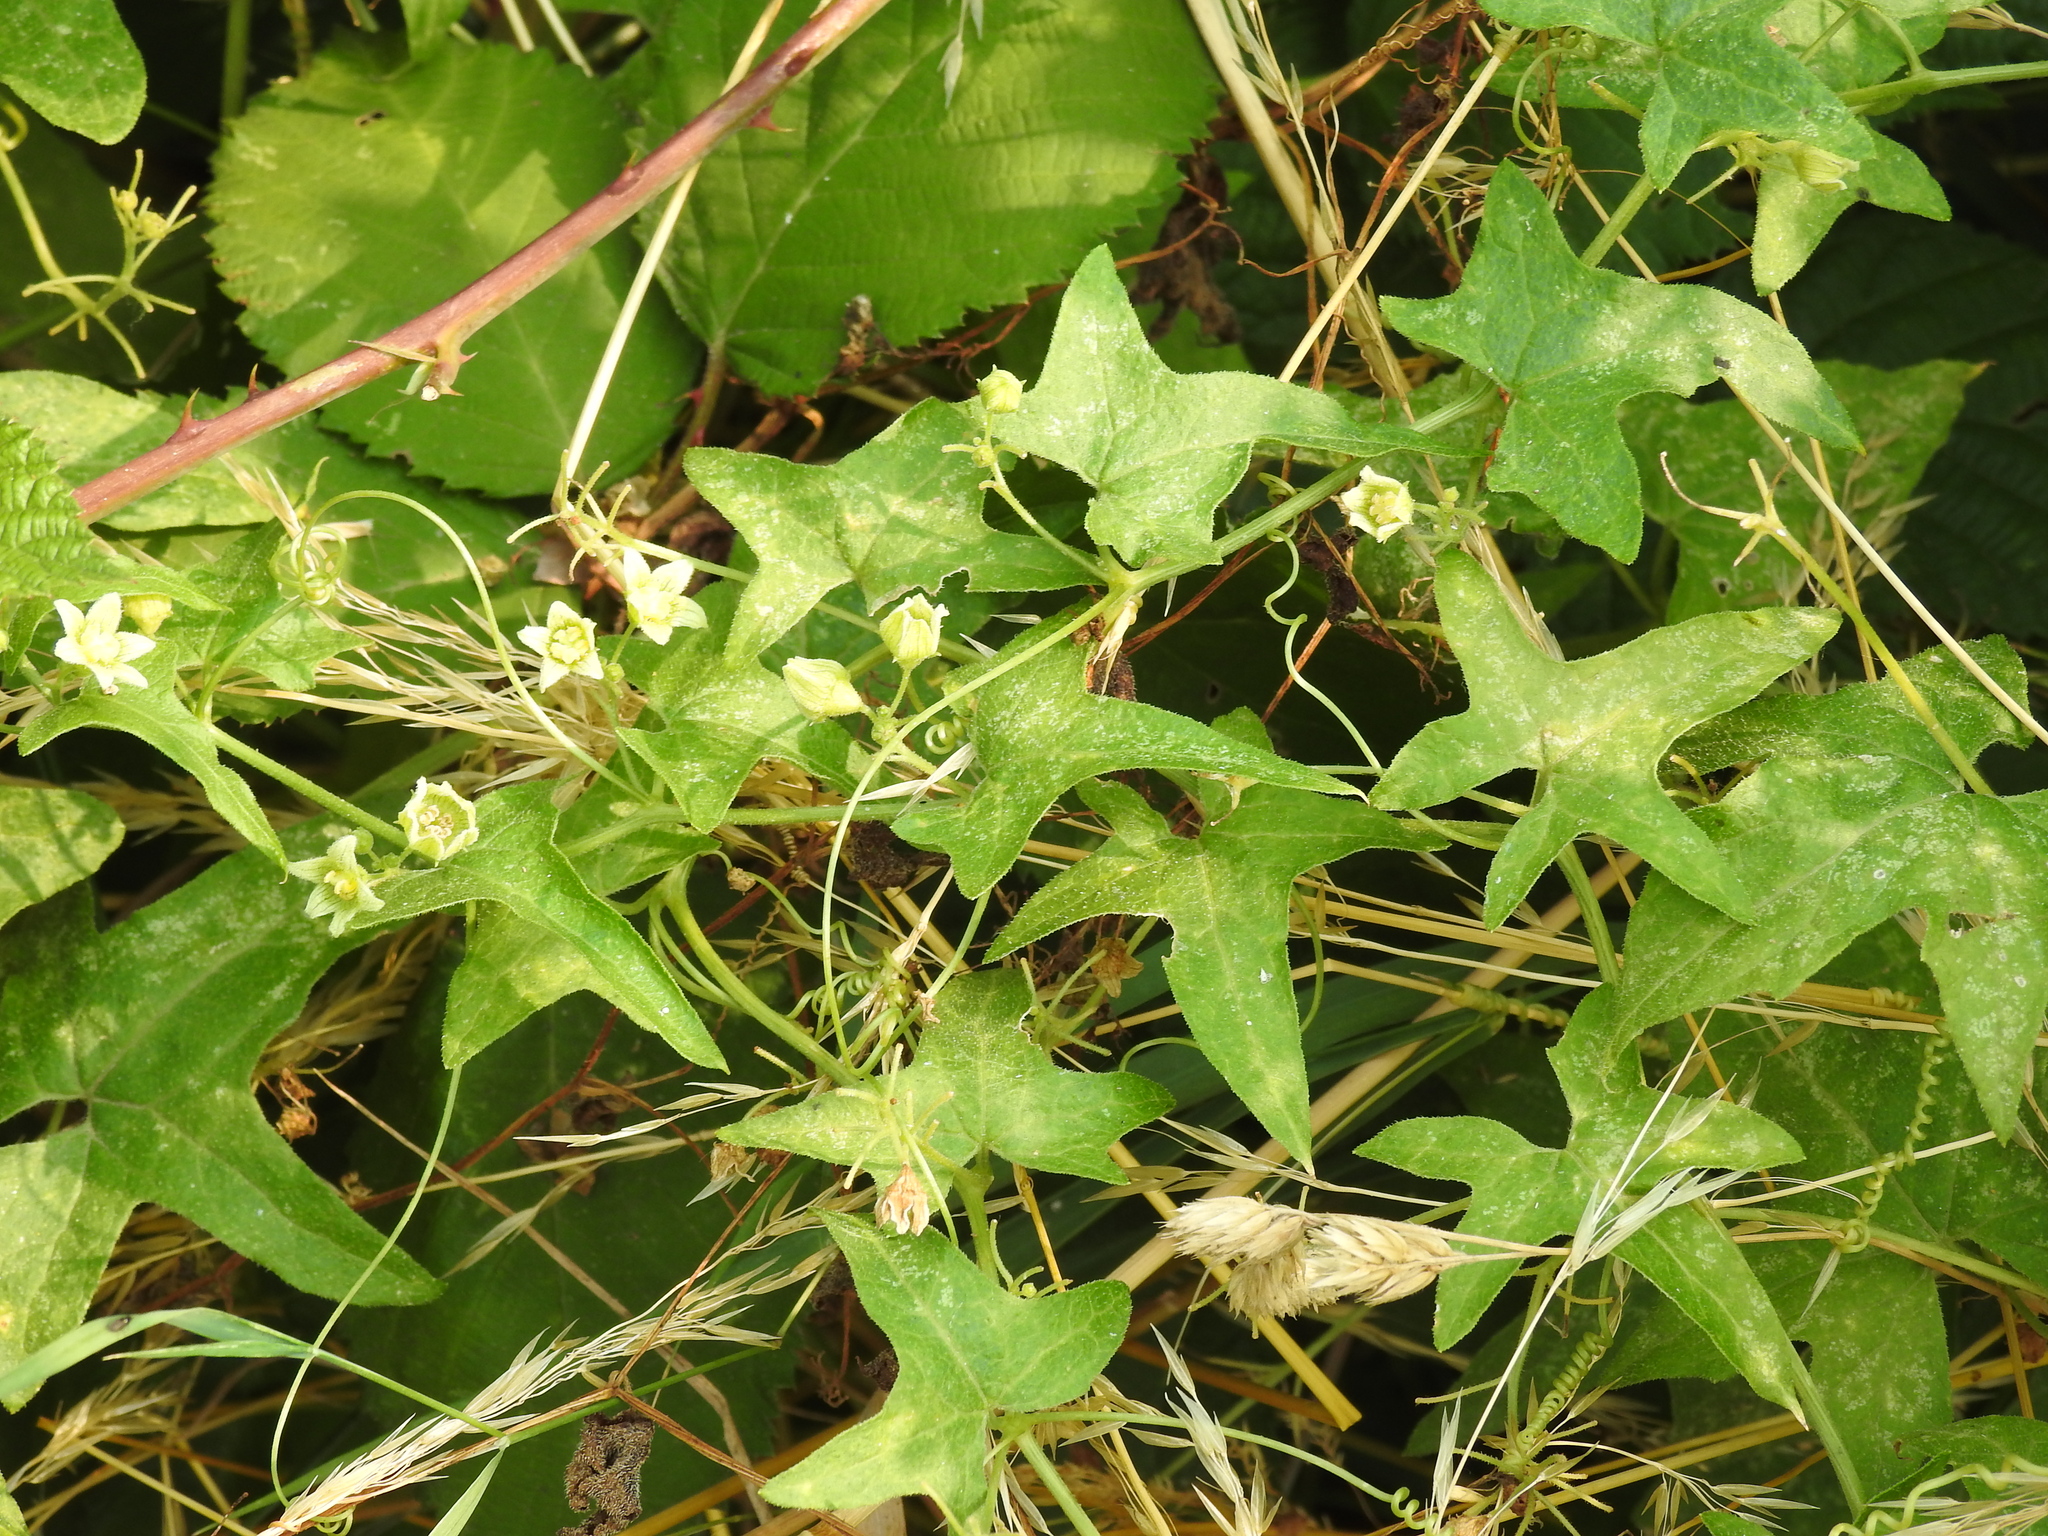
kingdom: Plantae
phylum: Tracheophyta
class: Magnoliopsida
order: Cucurbitales
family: Cucurbitaceae
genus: Bryonia
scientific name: Bryonia cretica
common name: Cretan bryony
